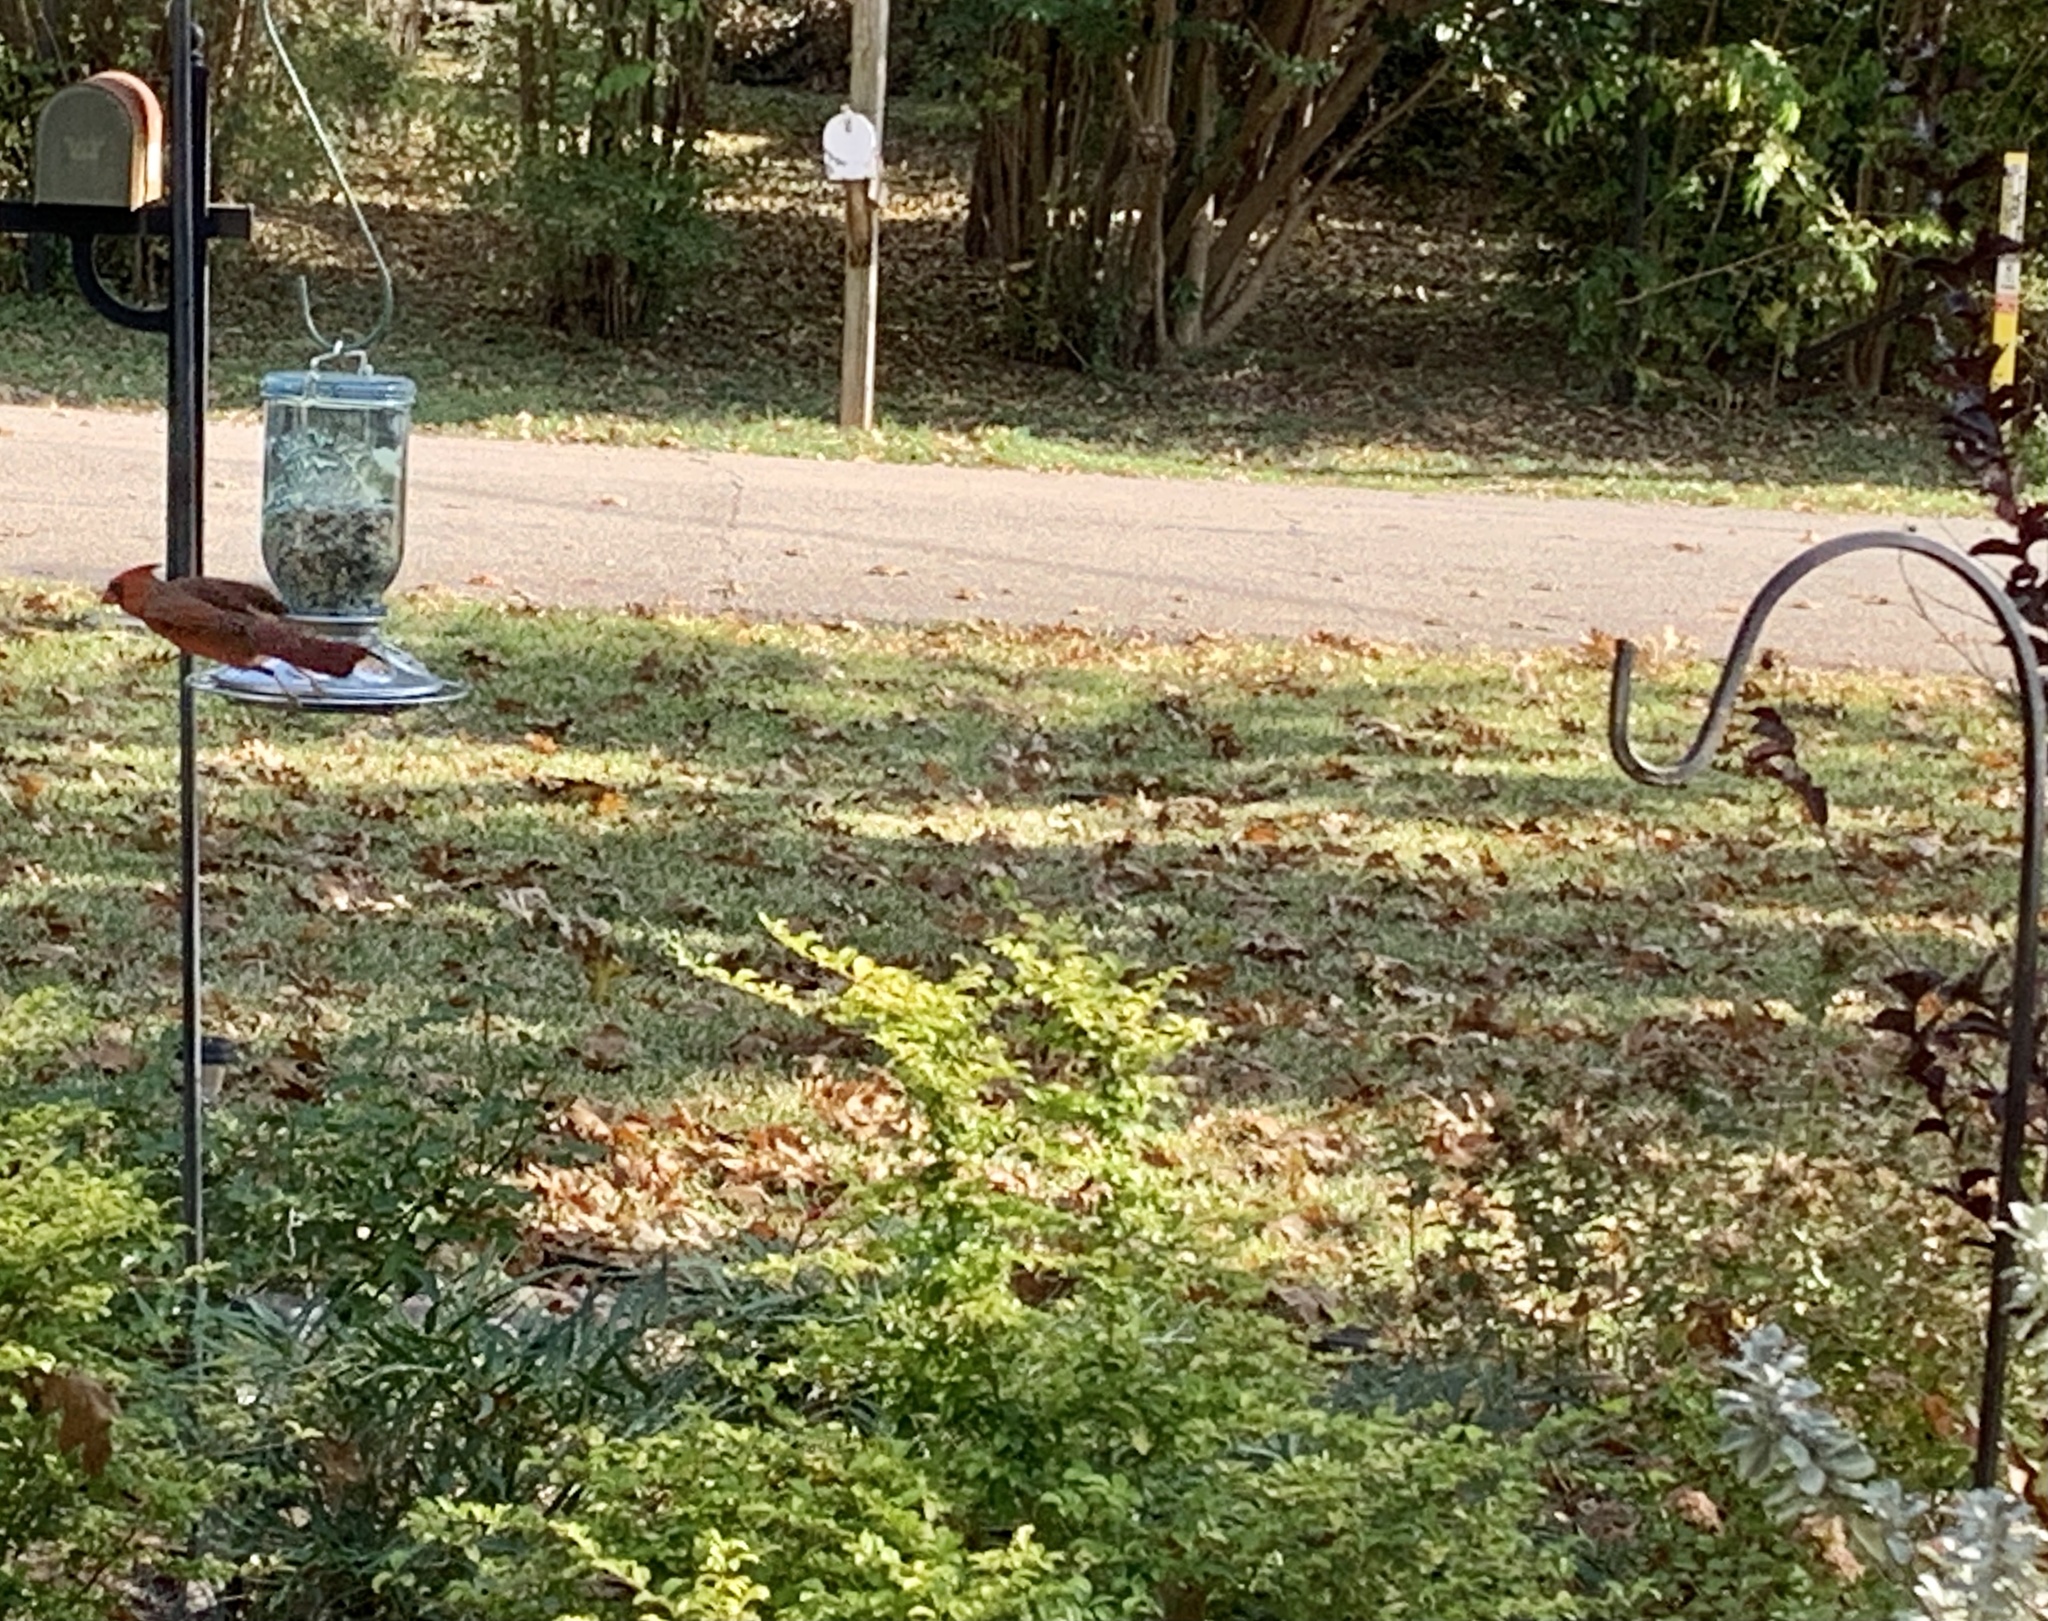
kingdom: Animalia
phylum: Chordata
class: Aves
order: Passeriformes
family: Cardinalidae
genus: Cardinalis
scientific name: Cardinalis cardinalis
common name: Northern cardinal
